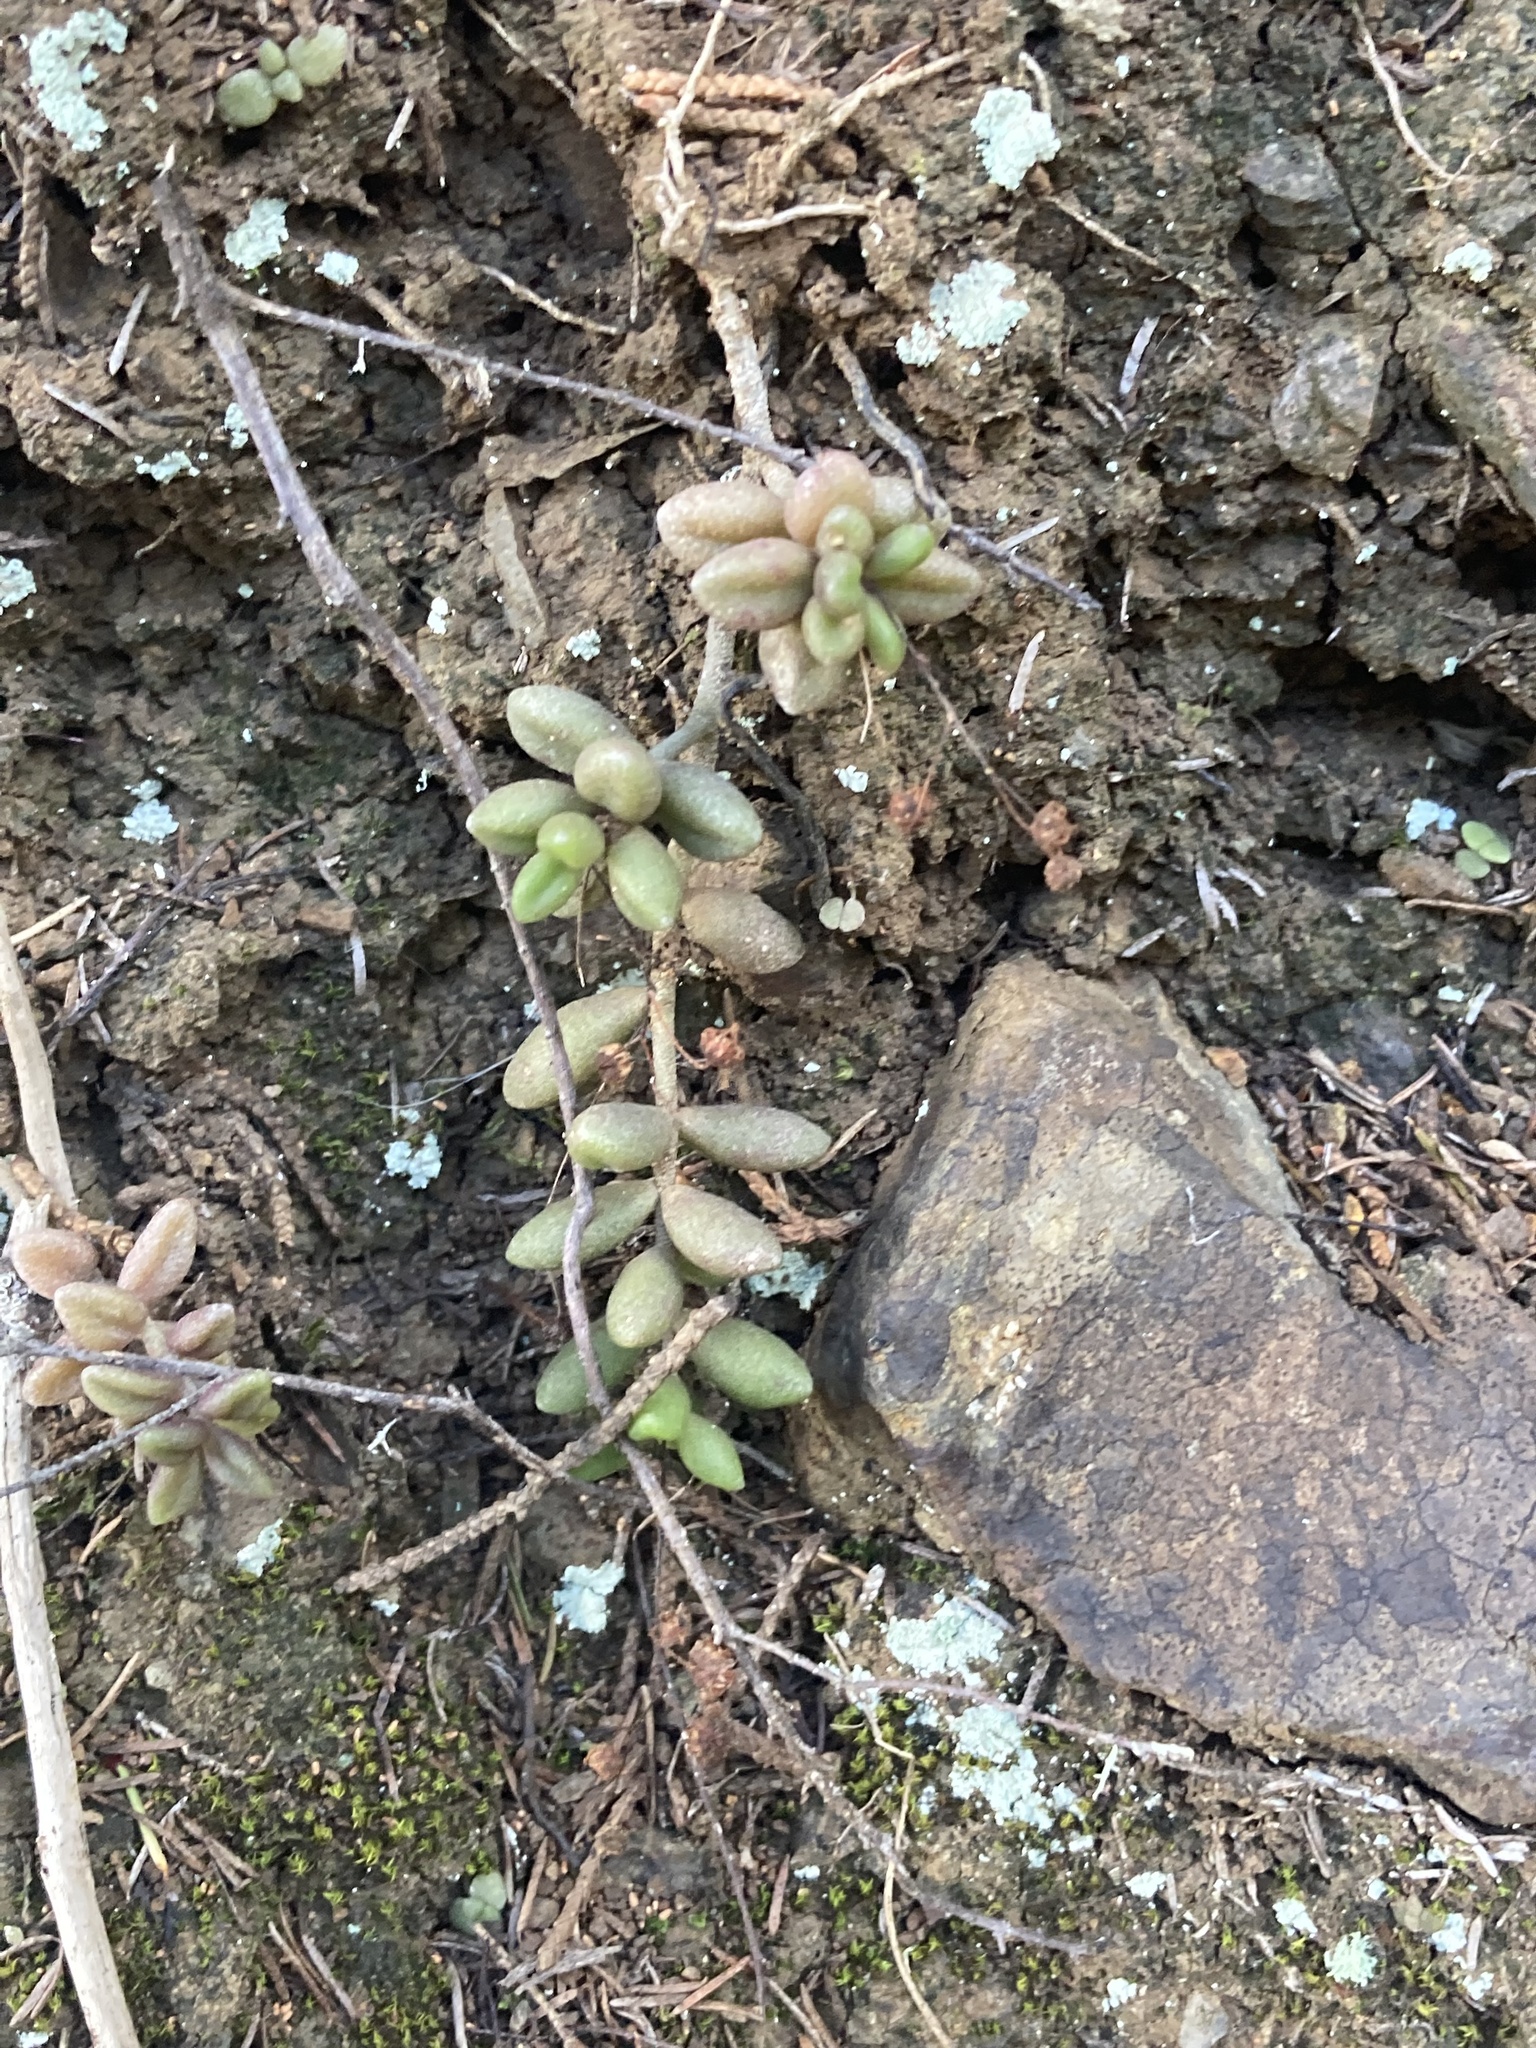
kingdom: Plantae
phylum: Tracheophyta
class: Magnoliopsida
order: Saxifragales
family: Crassulaceae
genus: Monanthes
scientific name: Monanthes laxiflora
